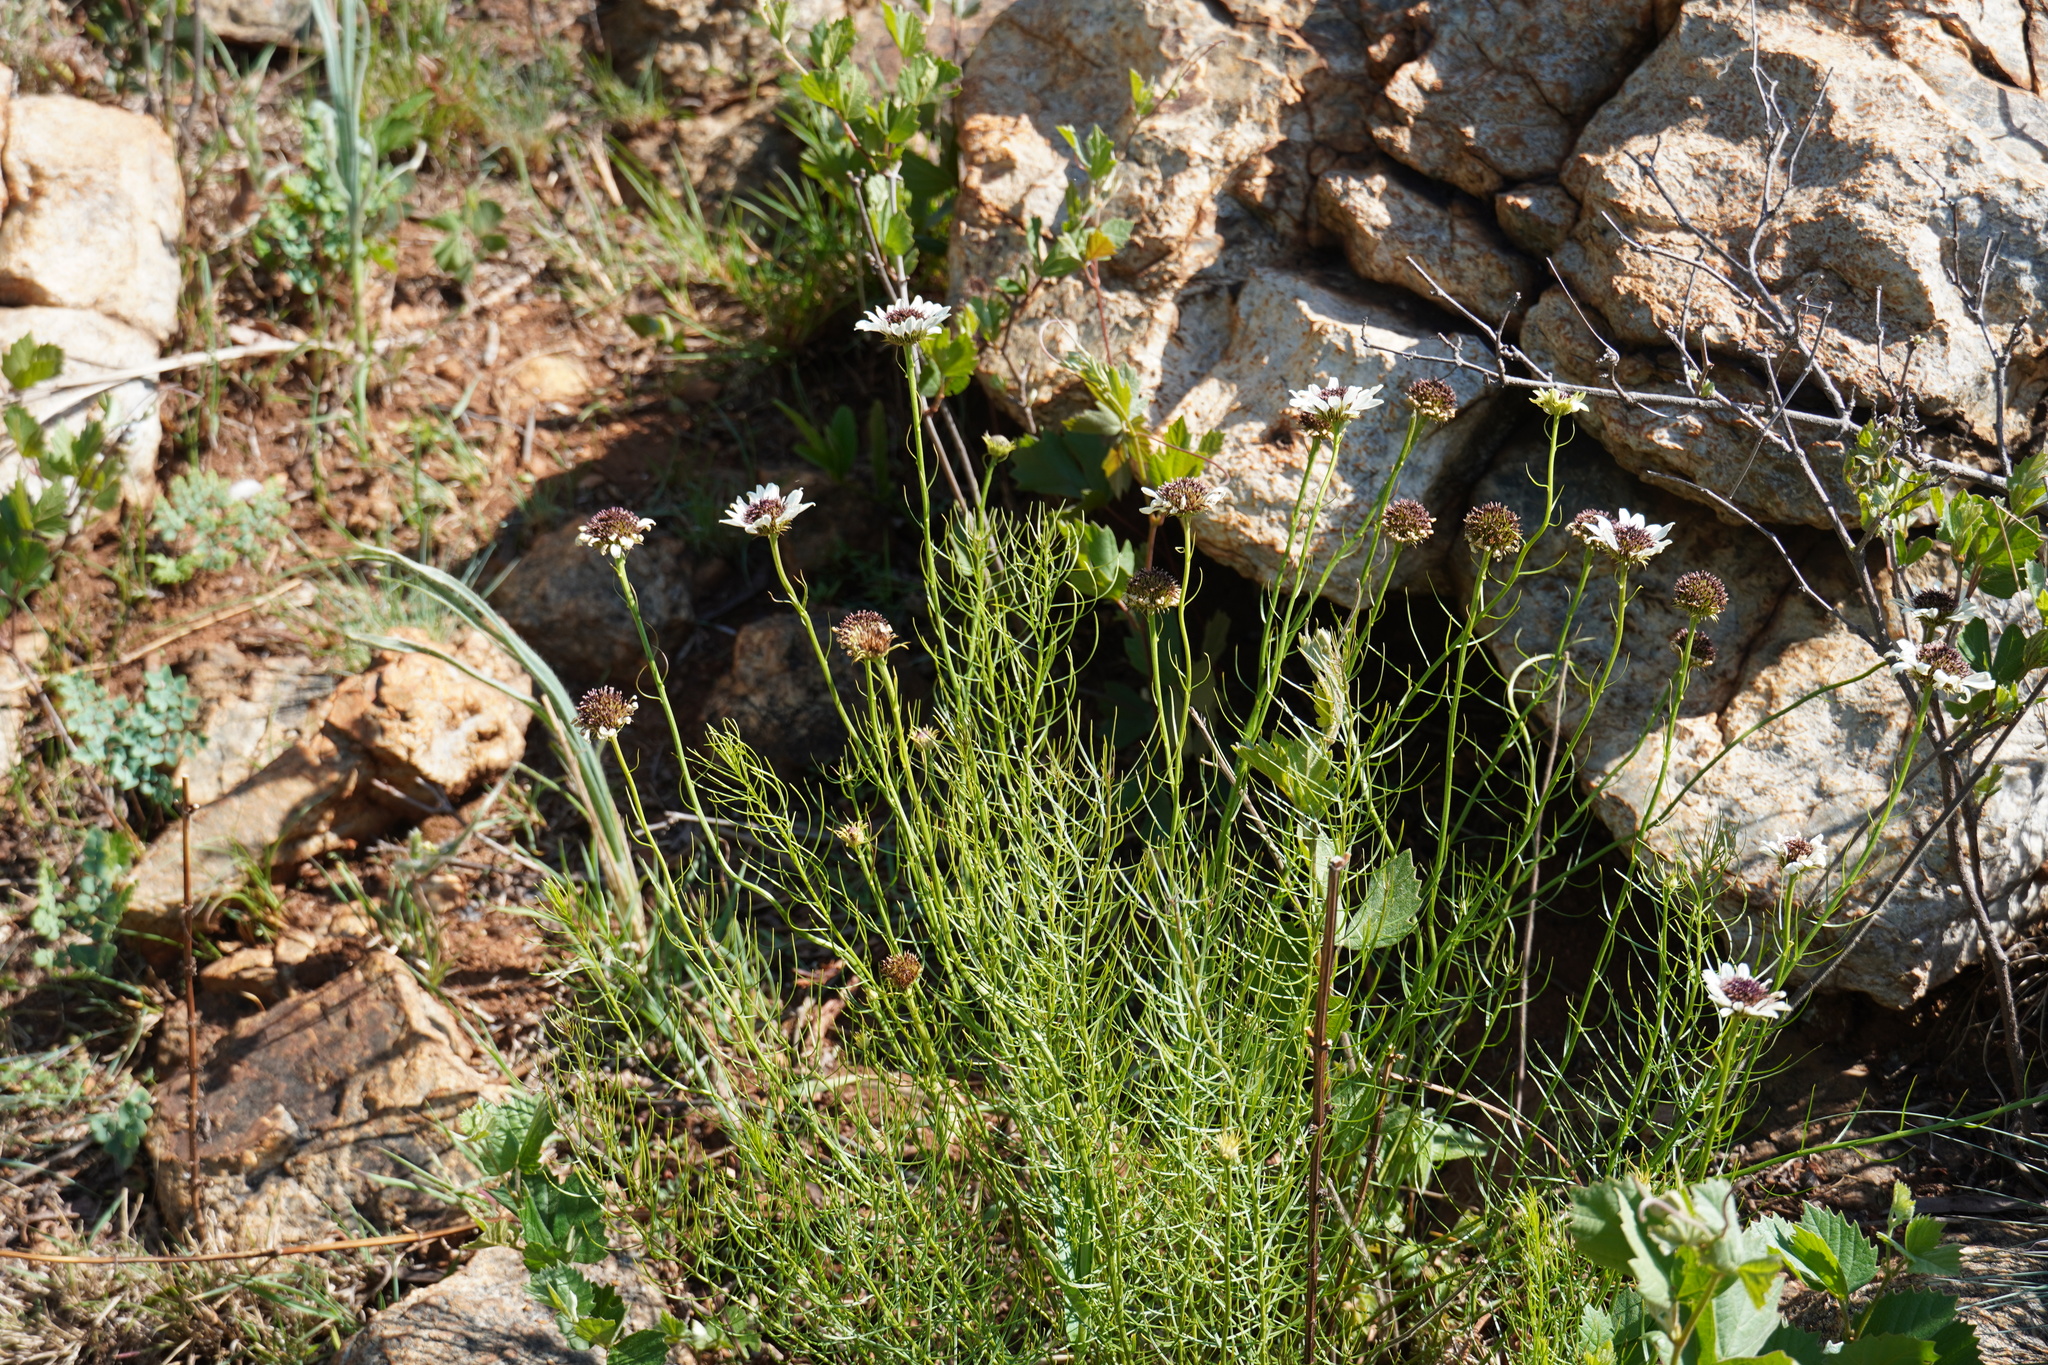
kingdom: Plantae
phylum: Tracheophyta
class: Magnoliopsida
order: Asterales
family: Asteraceae
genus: Callilepis
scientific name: Callilepis leptophylla
